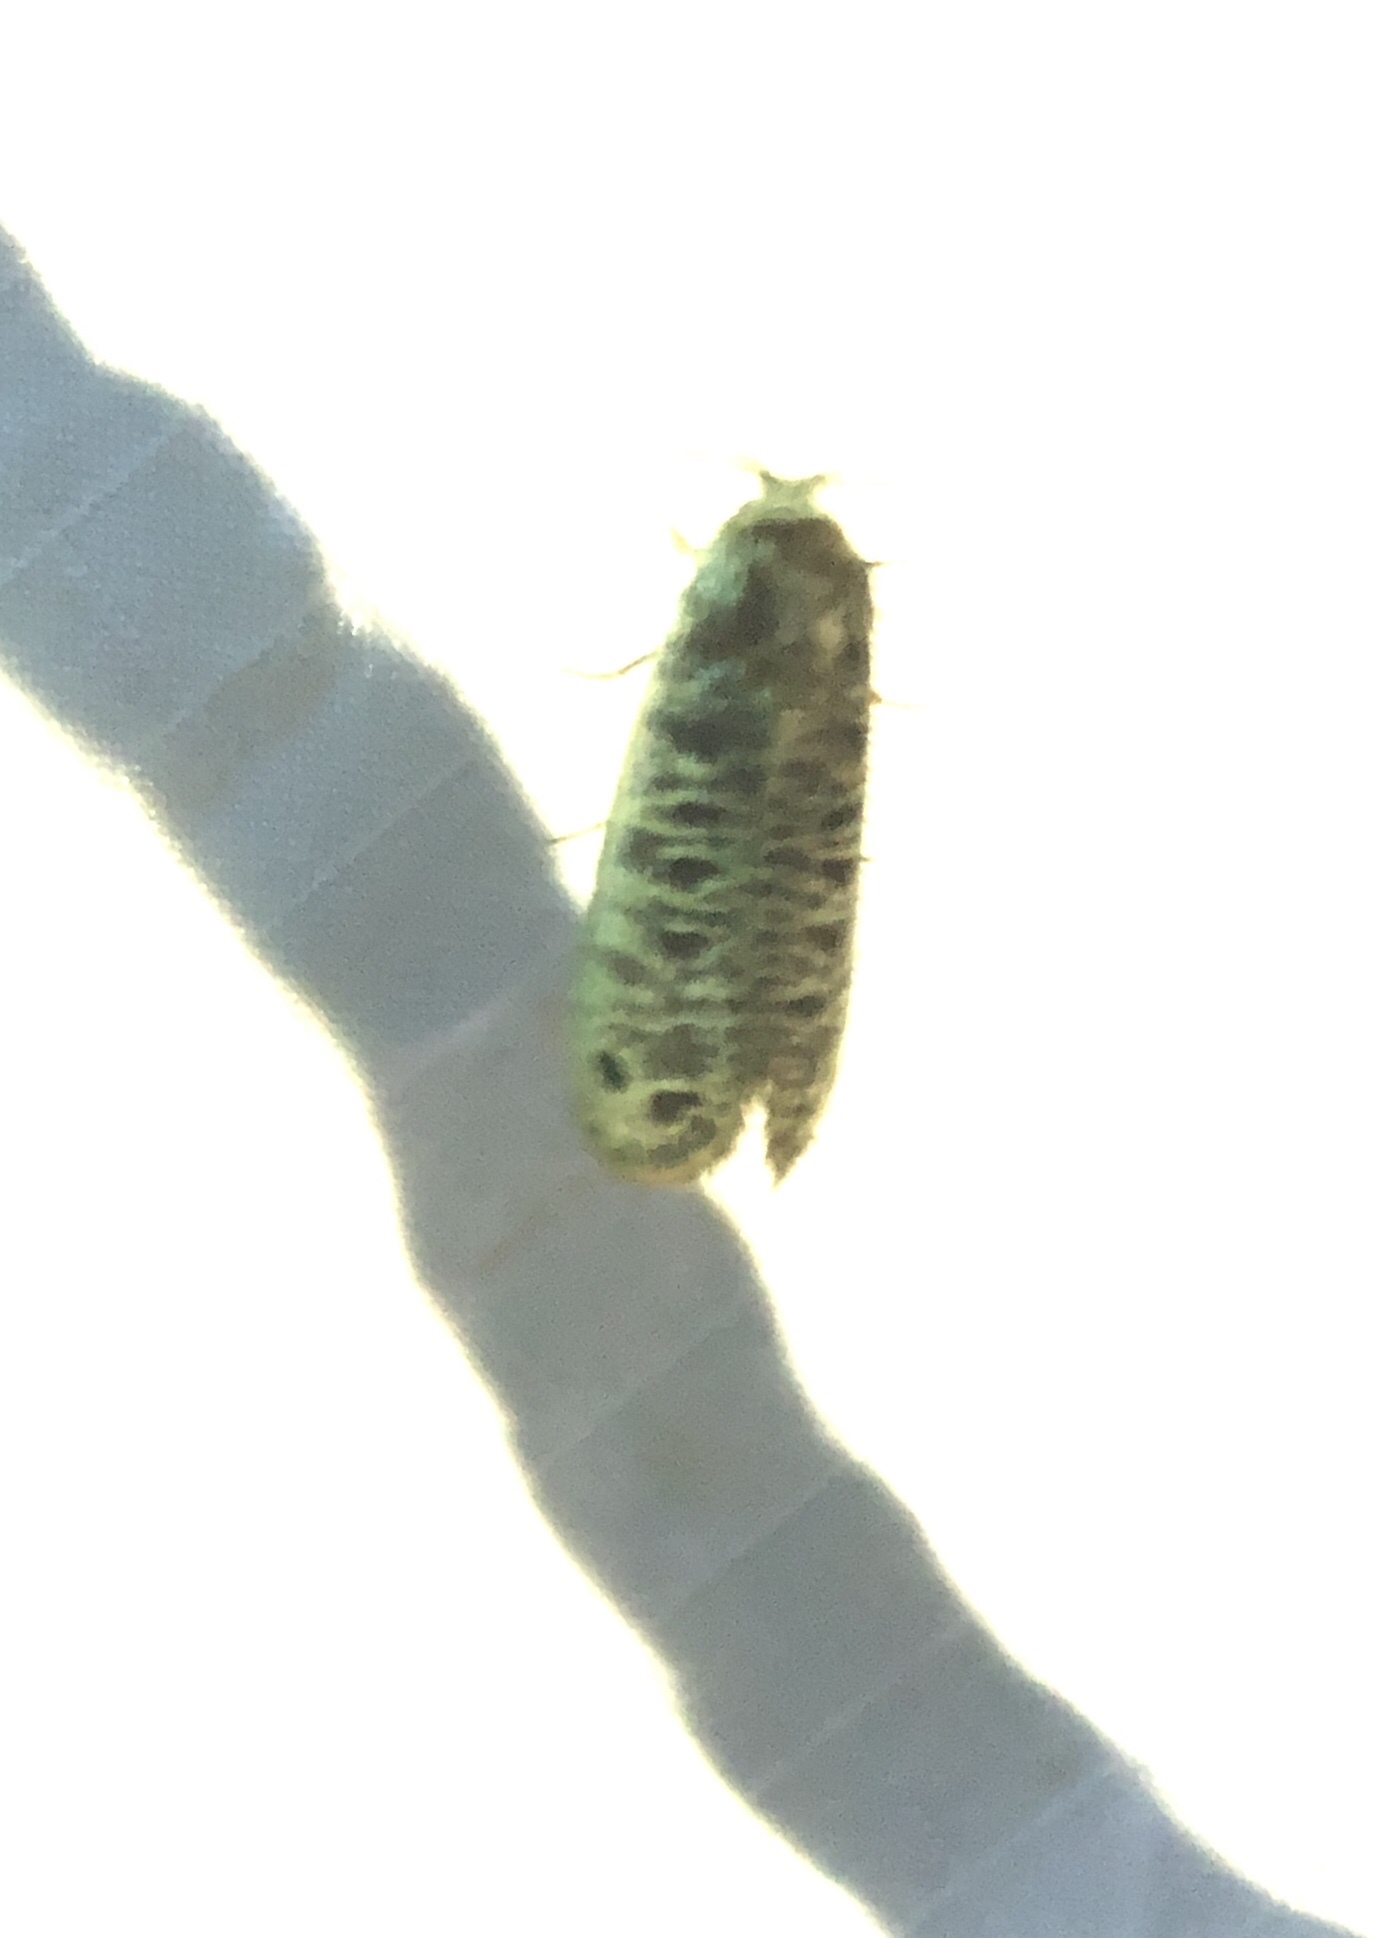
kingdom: Animalia
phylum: Arthropoda
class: Insecta
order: Lepidoptera
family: Dudgeoneidae
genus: Biocellata
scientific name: Biocellata alfarae
